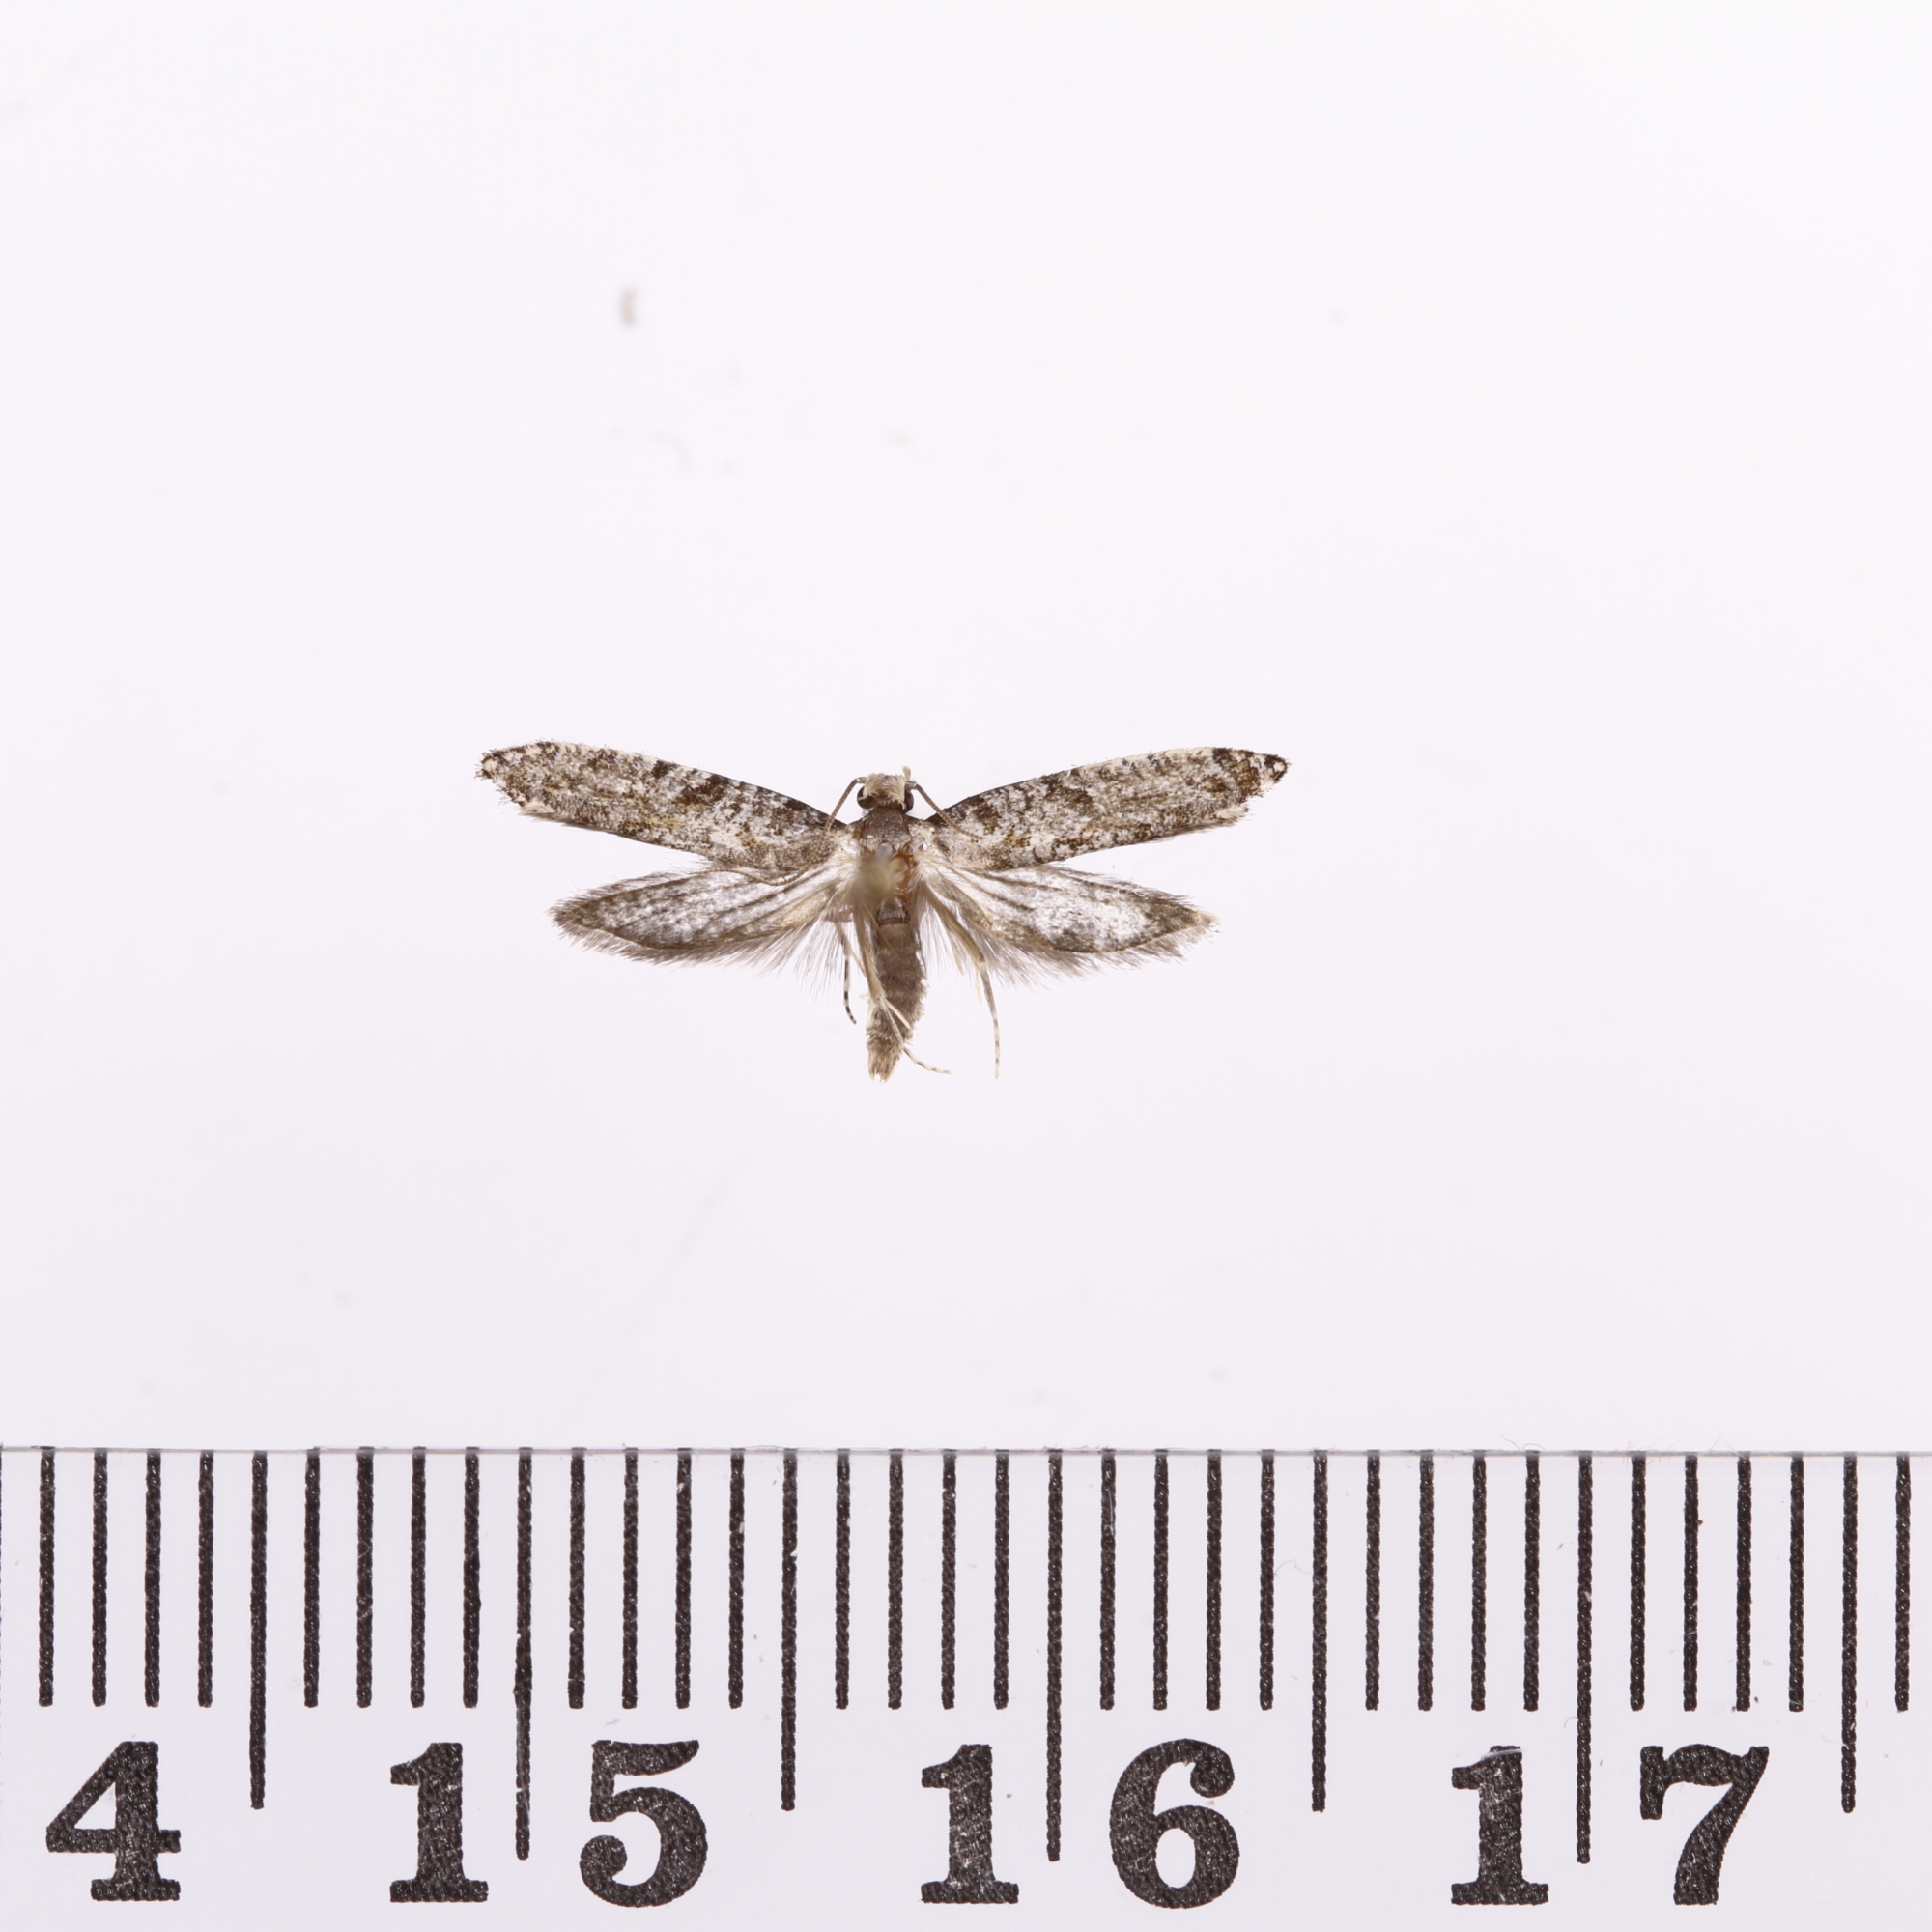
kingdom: Animalia
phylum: Arthropoda
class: Insecta
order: Lepidoptera
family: Tineidae
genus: Archyala
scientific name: Archyala paraglypta
